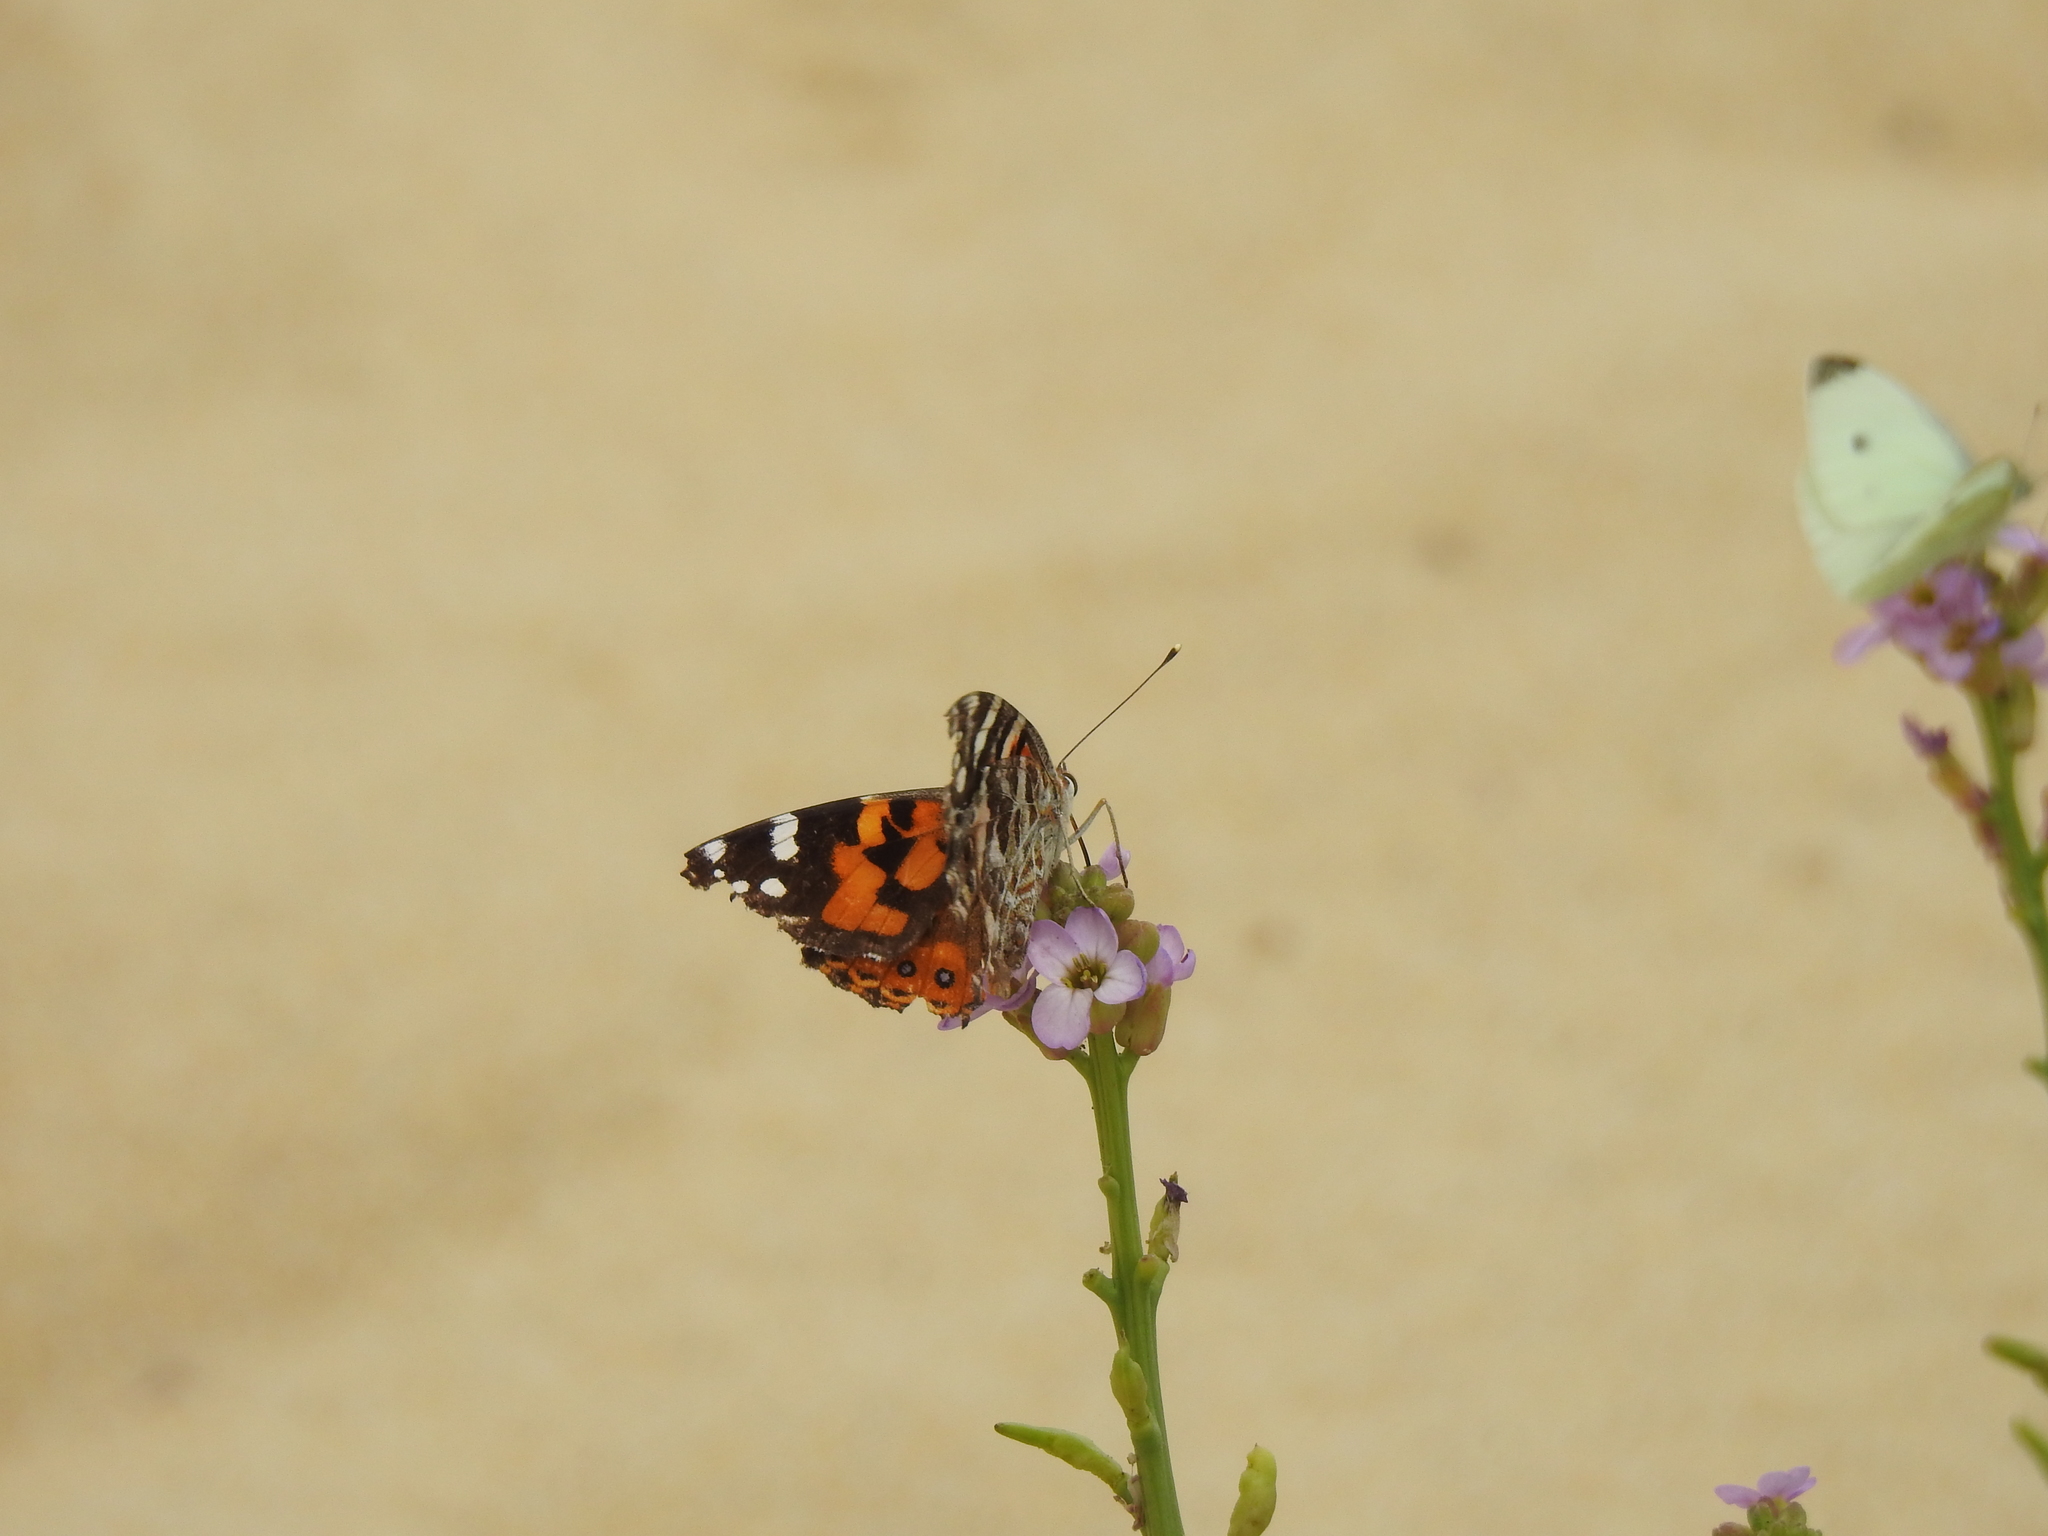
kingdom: Animalia
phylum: Arthropoda
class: Insecta
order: Lepidoptera
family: Nymphalidae
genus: Vanessa
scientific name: Vanessa kershawi
